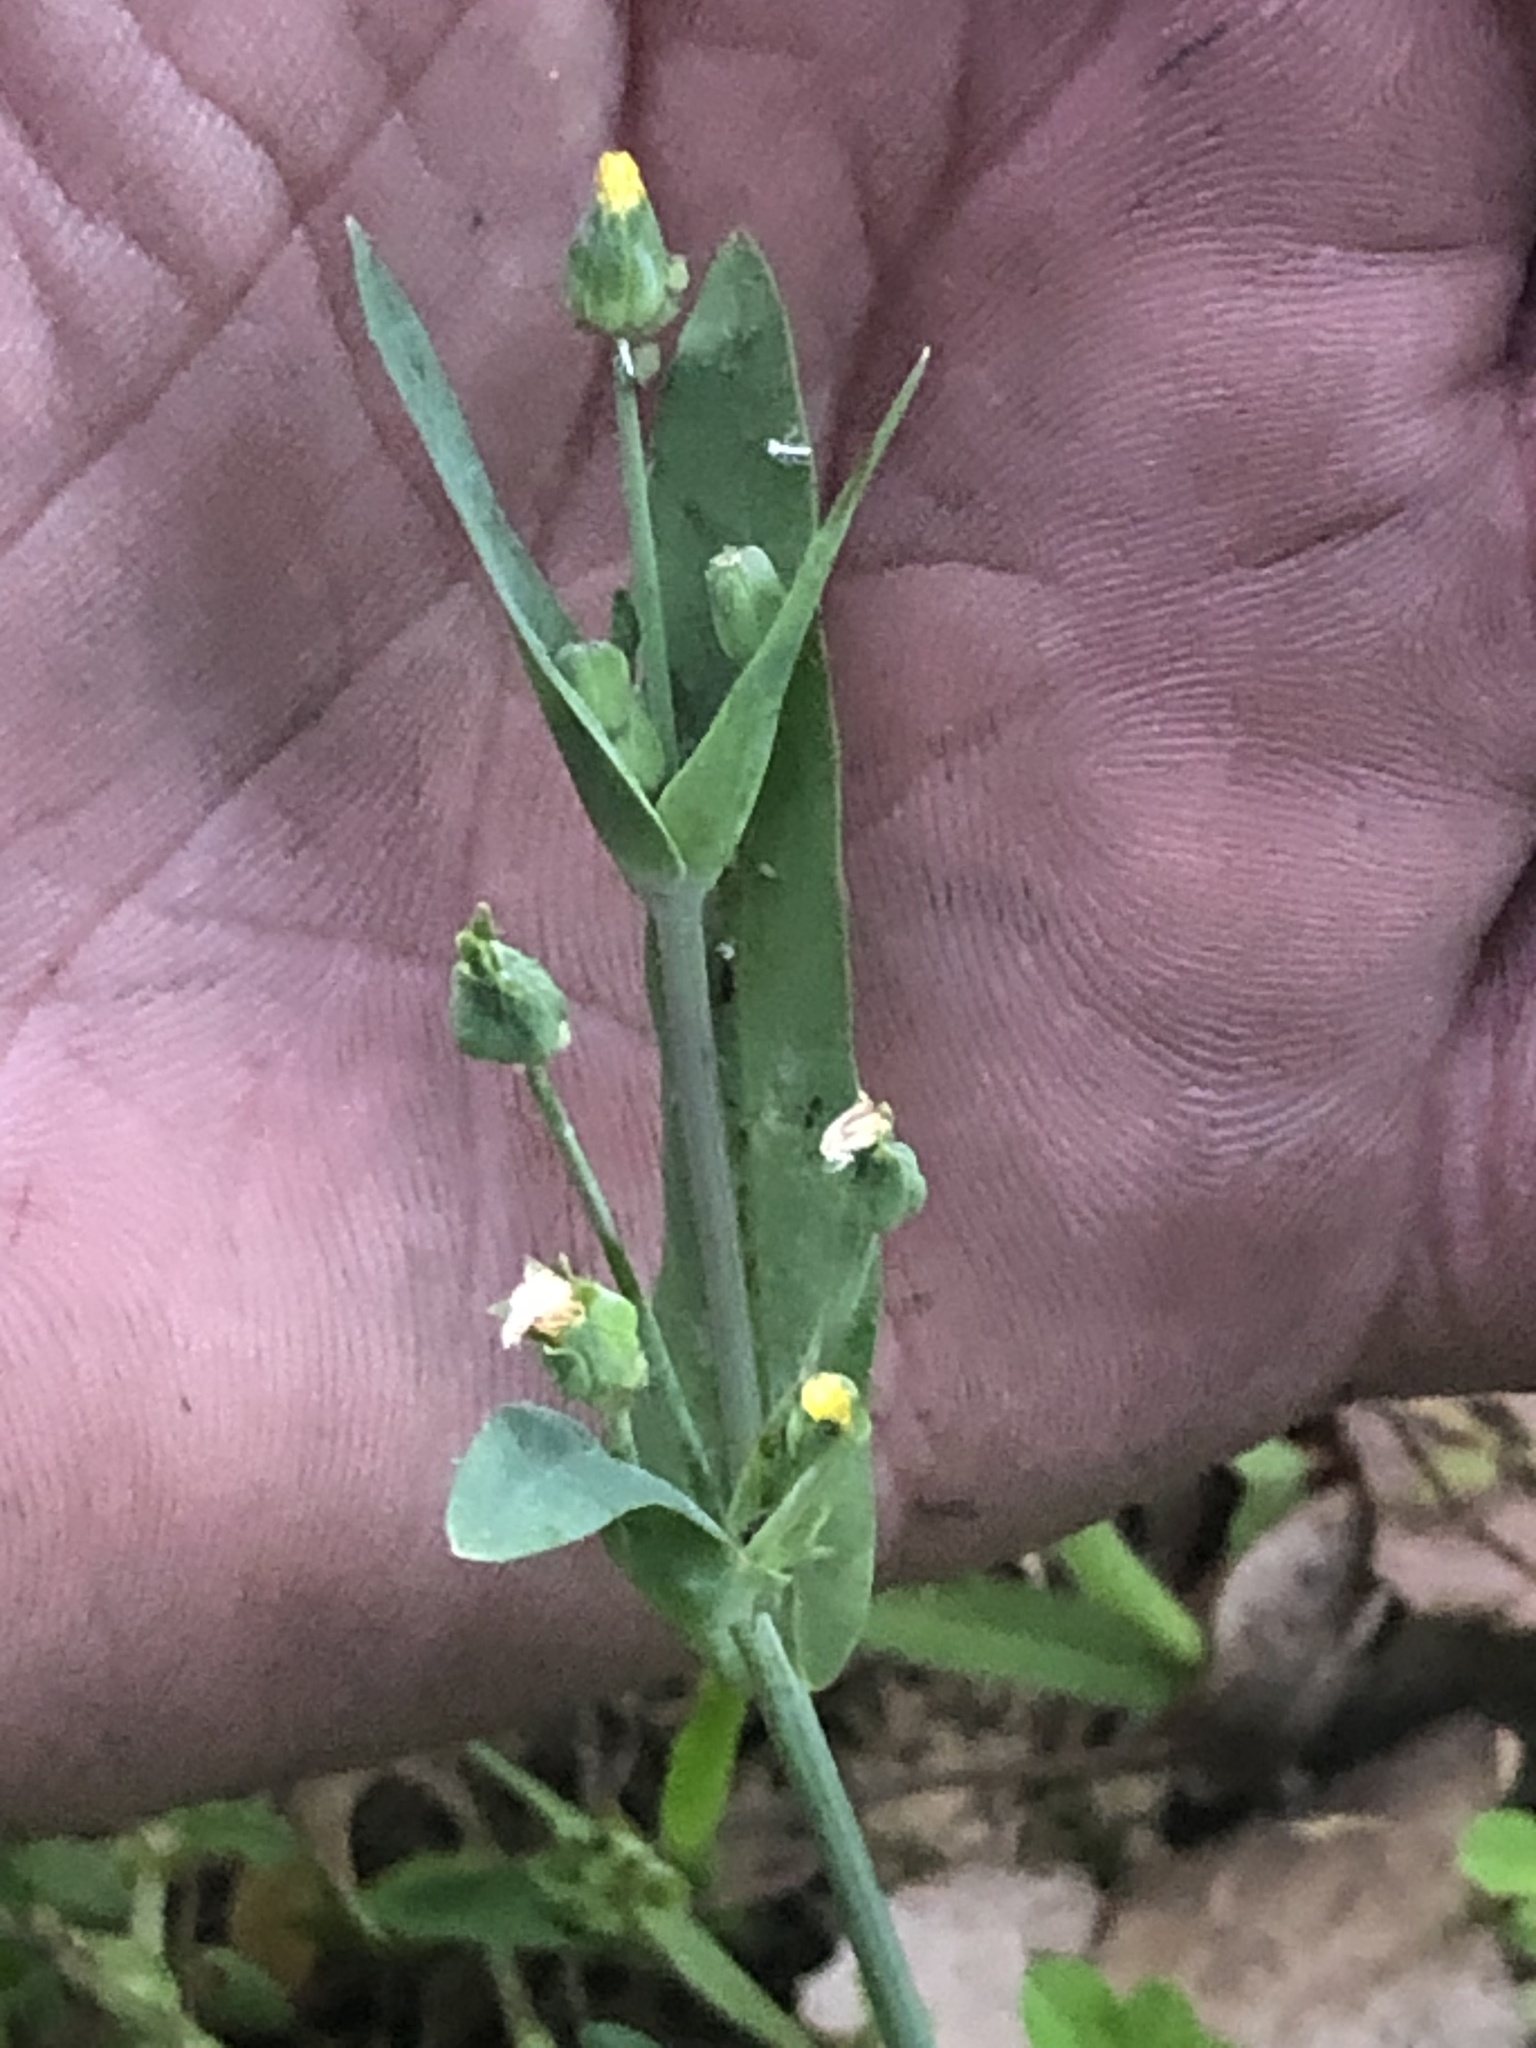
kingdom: Plantae
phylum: Tracheophyta
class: Magnoliopsida
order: Asterales
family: Asteraceae
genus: Krigia
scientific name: Krigia cespitosa
